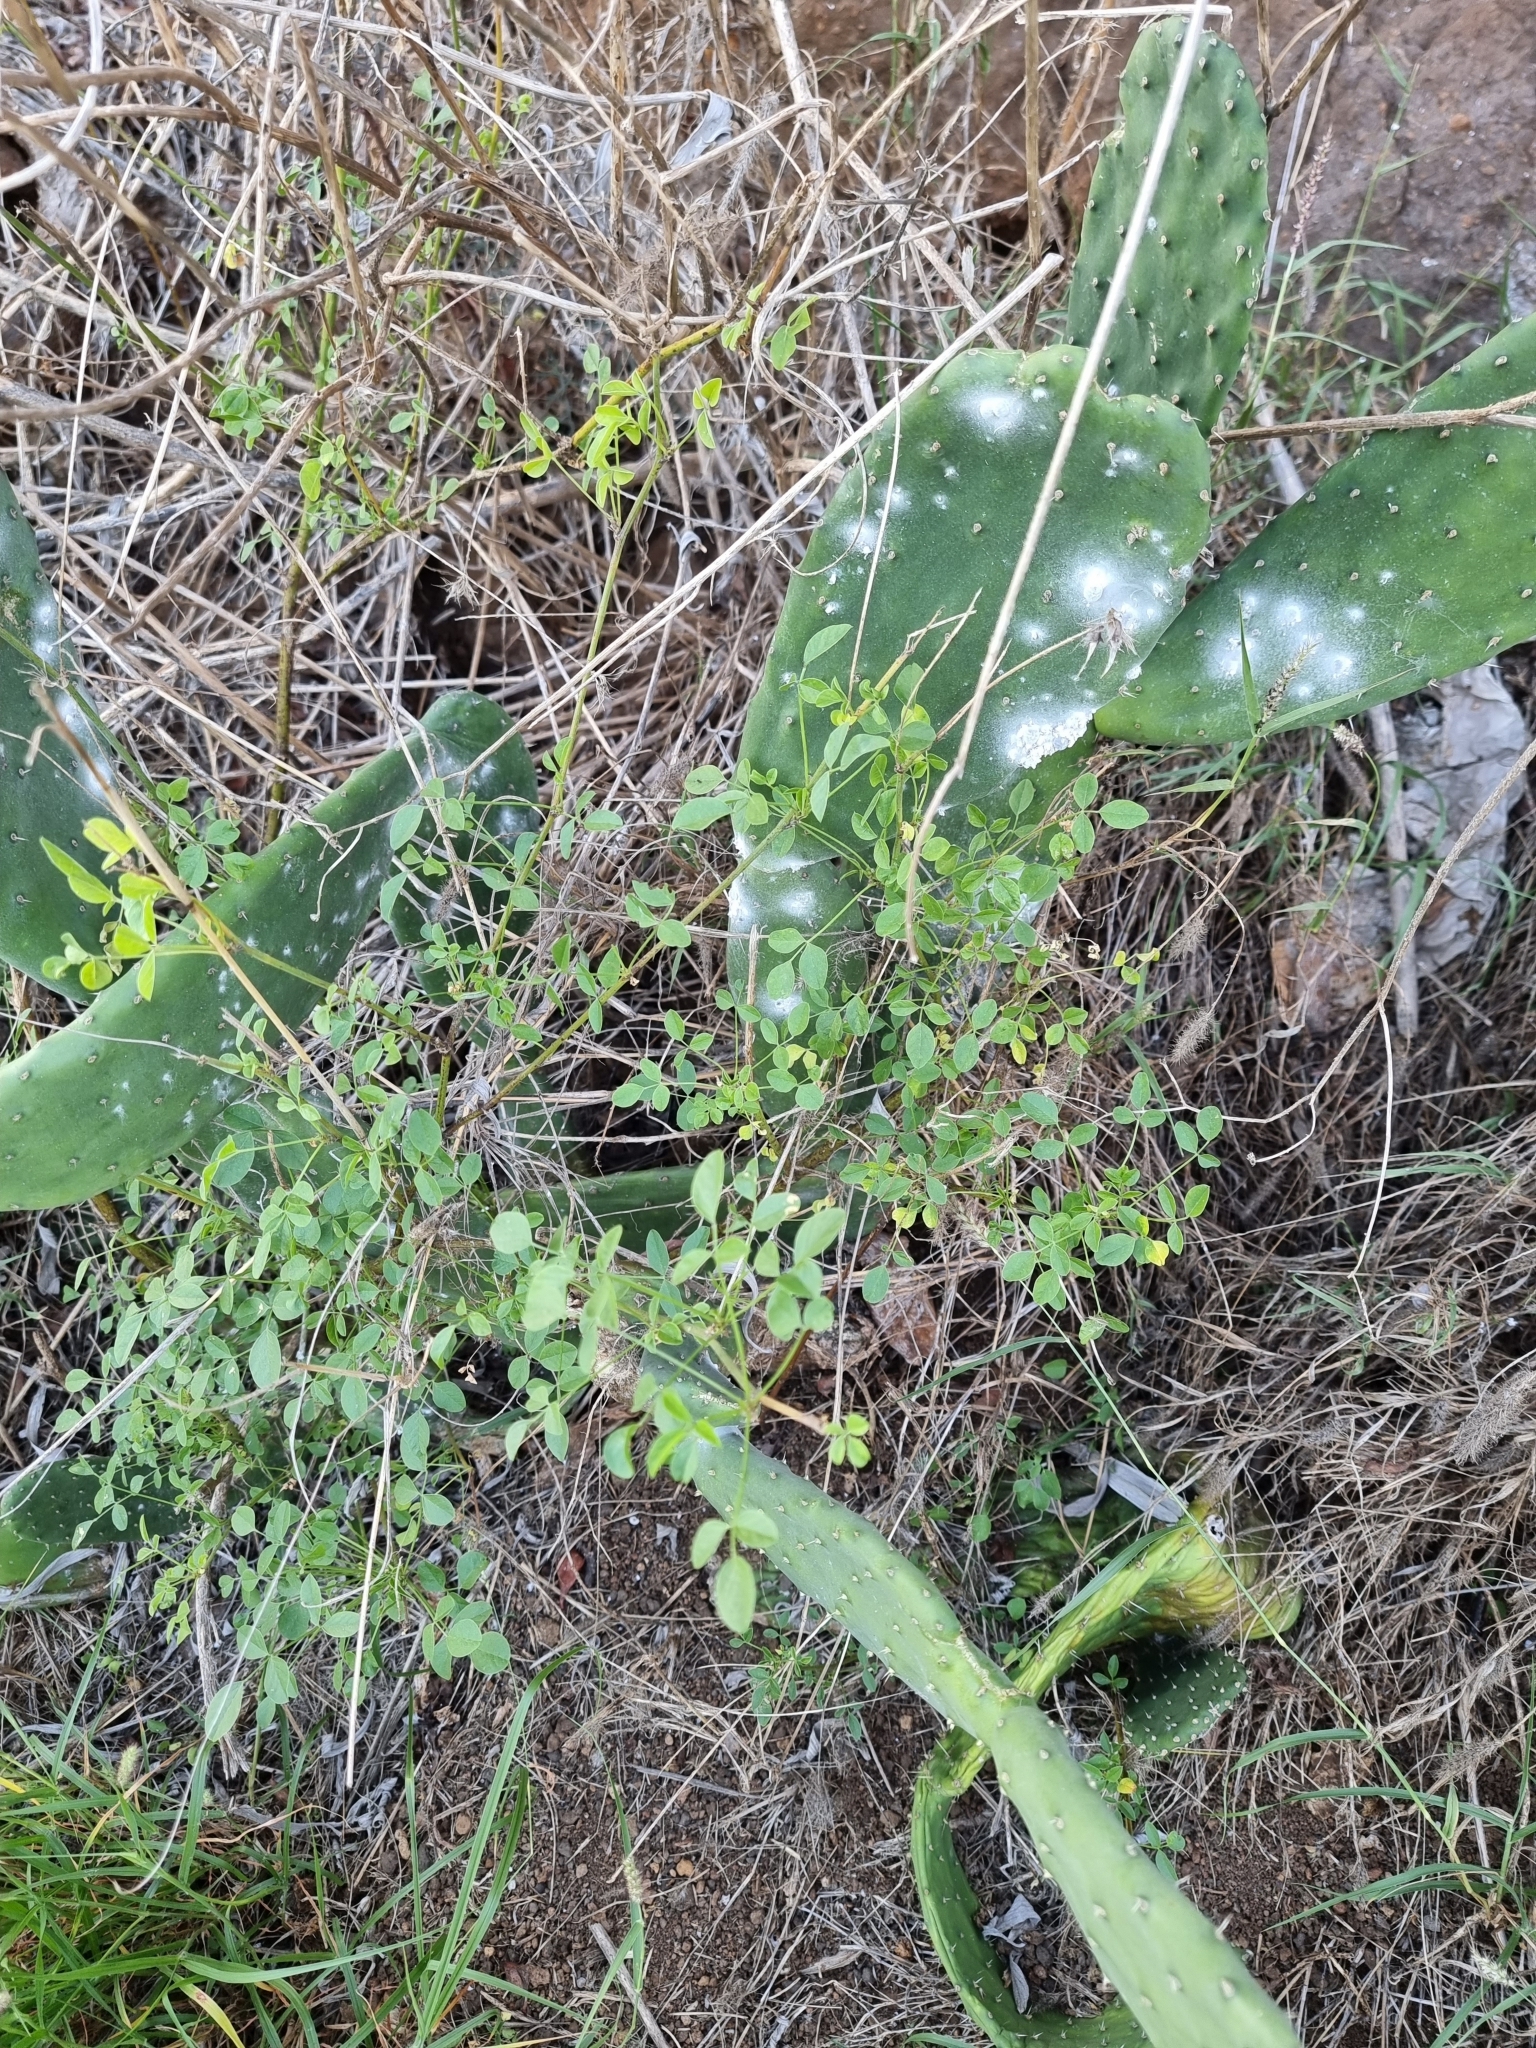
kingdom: Plantae
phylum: Tracheophyta
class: Magnoliopsida
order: Fabales
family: Fabaceae
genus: Bituminaria
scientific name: Bituminaria bituminosa
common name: Arabian pea
